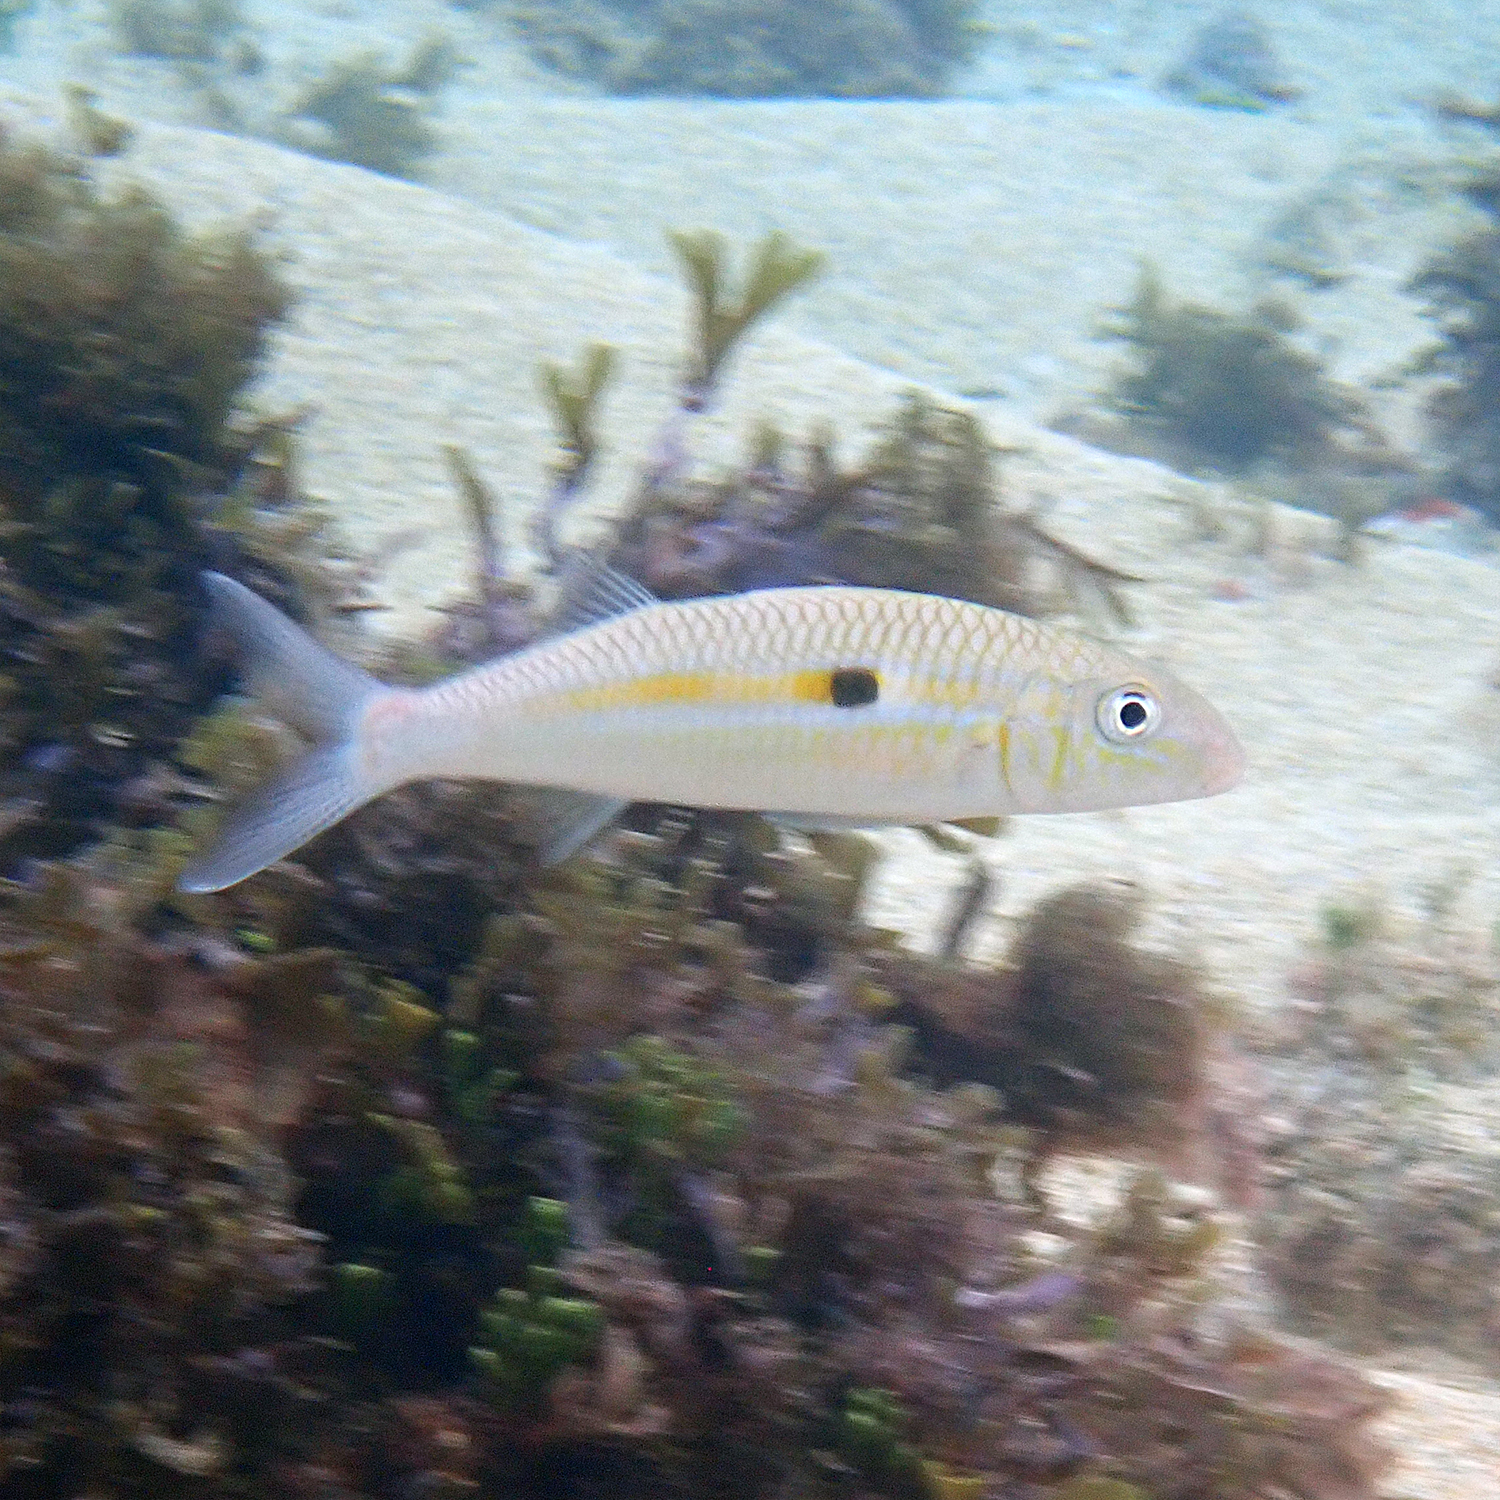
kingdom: Animalia
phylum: Chordata
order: Perciformes
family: Mullidae
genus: Mulloidichthys
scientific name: Mulloidichthys flavolineatus
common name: Yellowstripe goatfish
